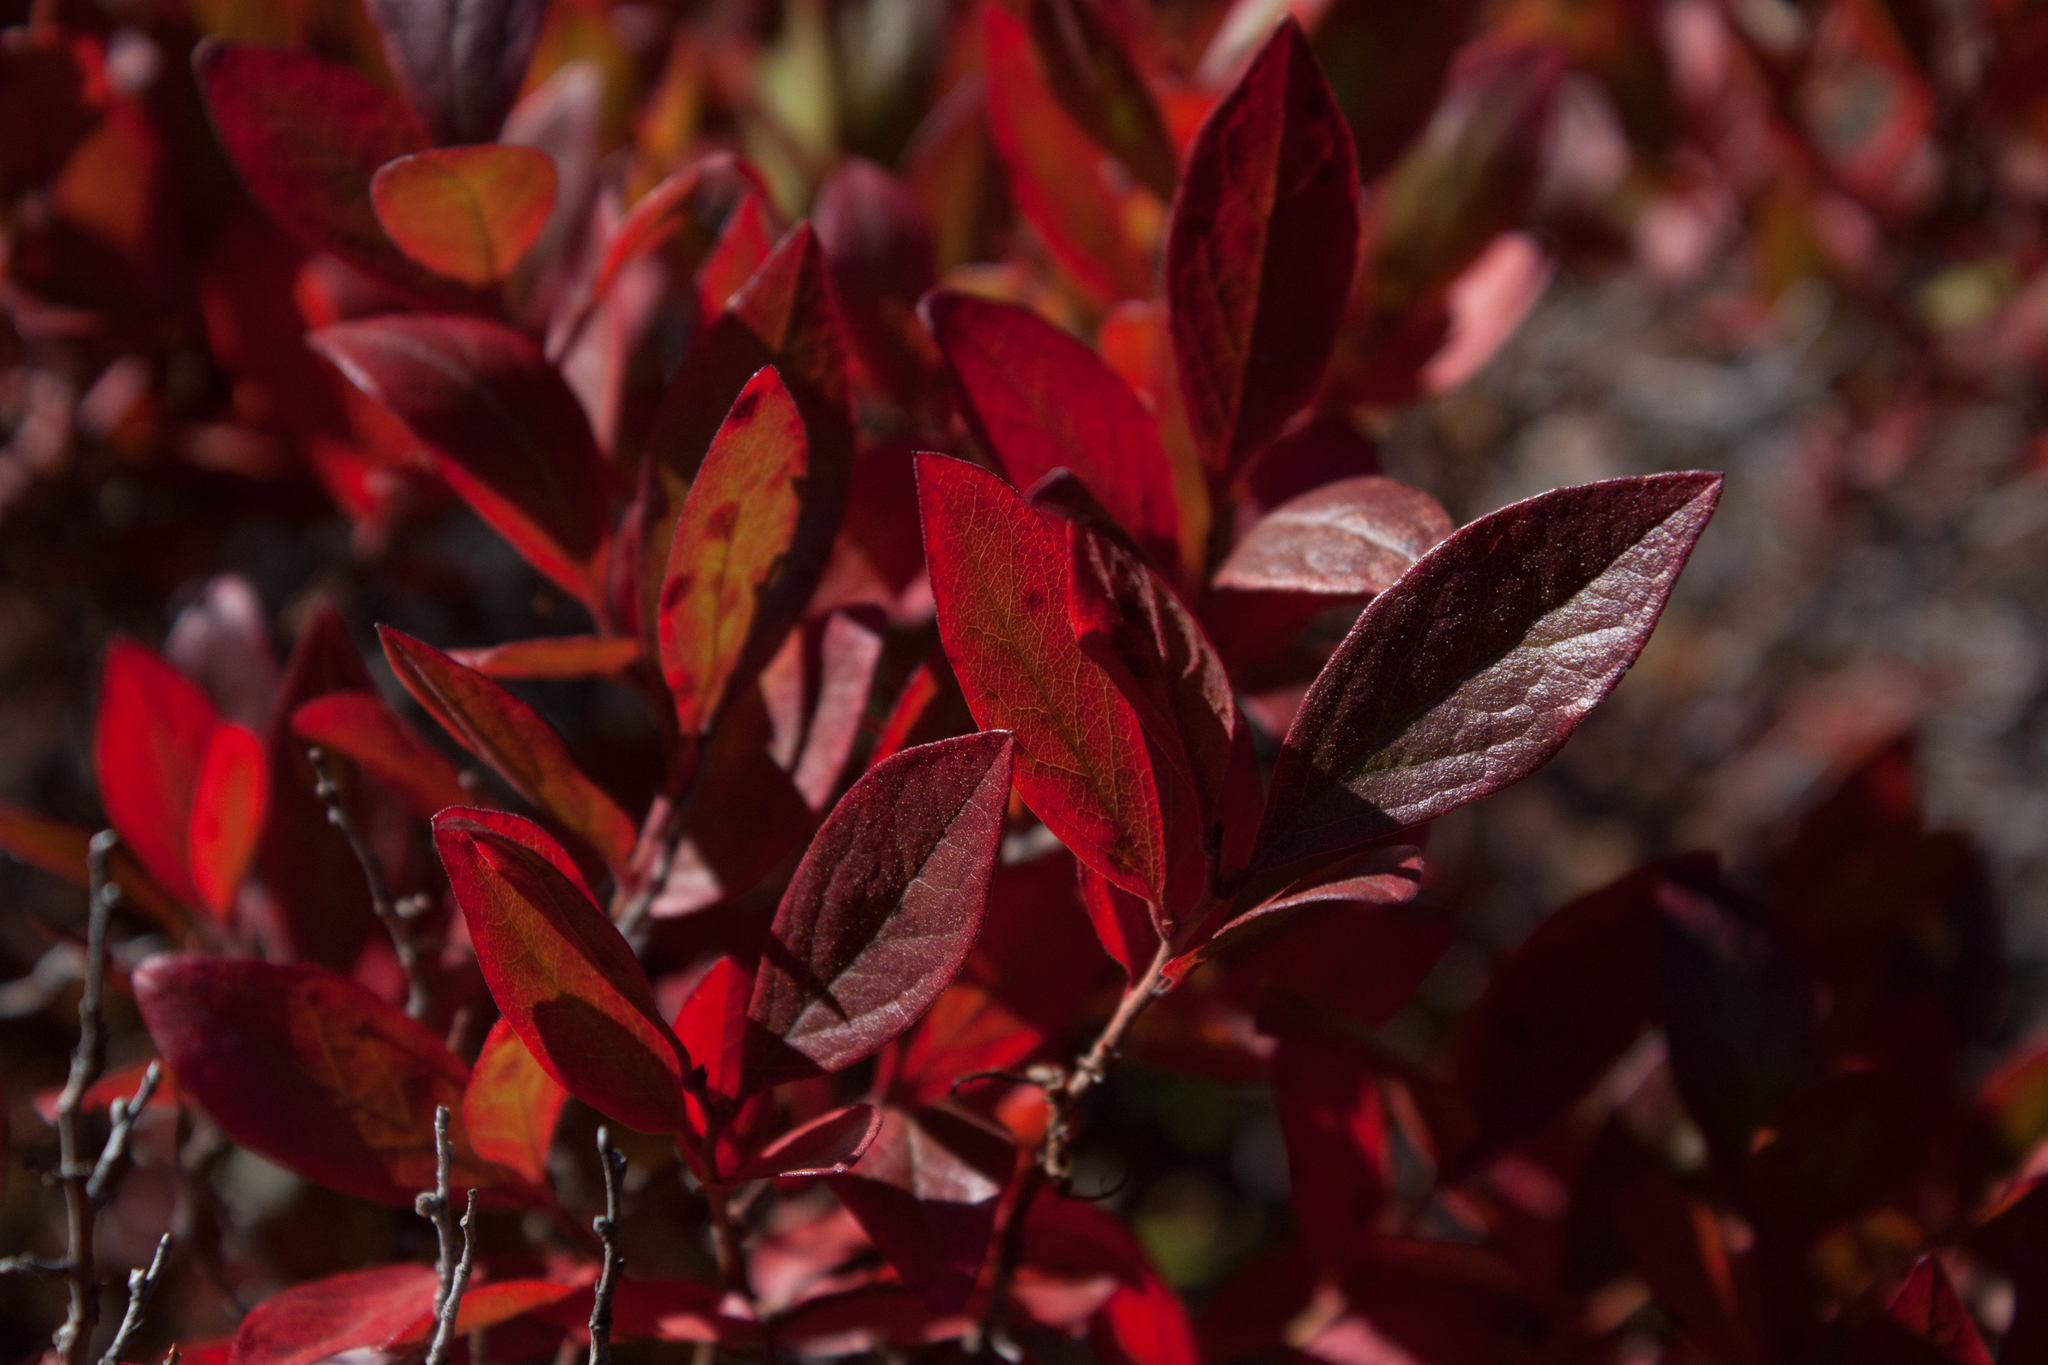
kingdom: Plantae
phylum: Tracheophyta
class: Magnoliopsida
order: Ericales
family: Ericaceae
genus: Gaylussacia
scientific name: Gaylussacia baccata
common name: Black huckleberry
